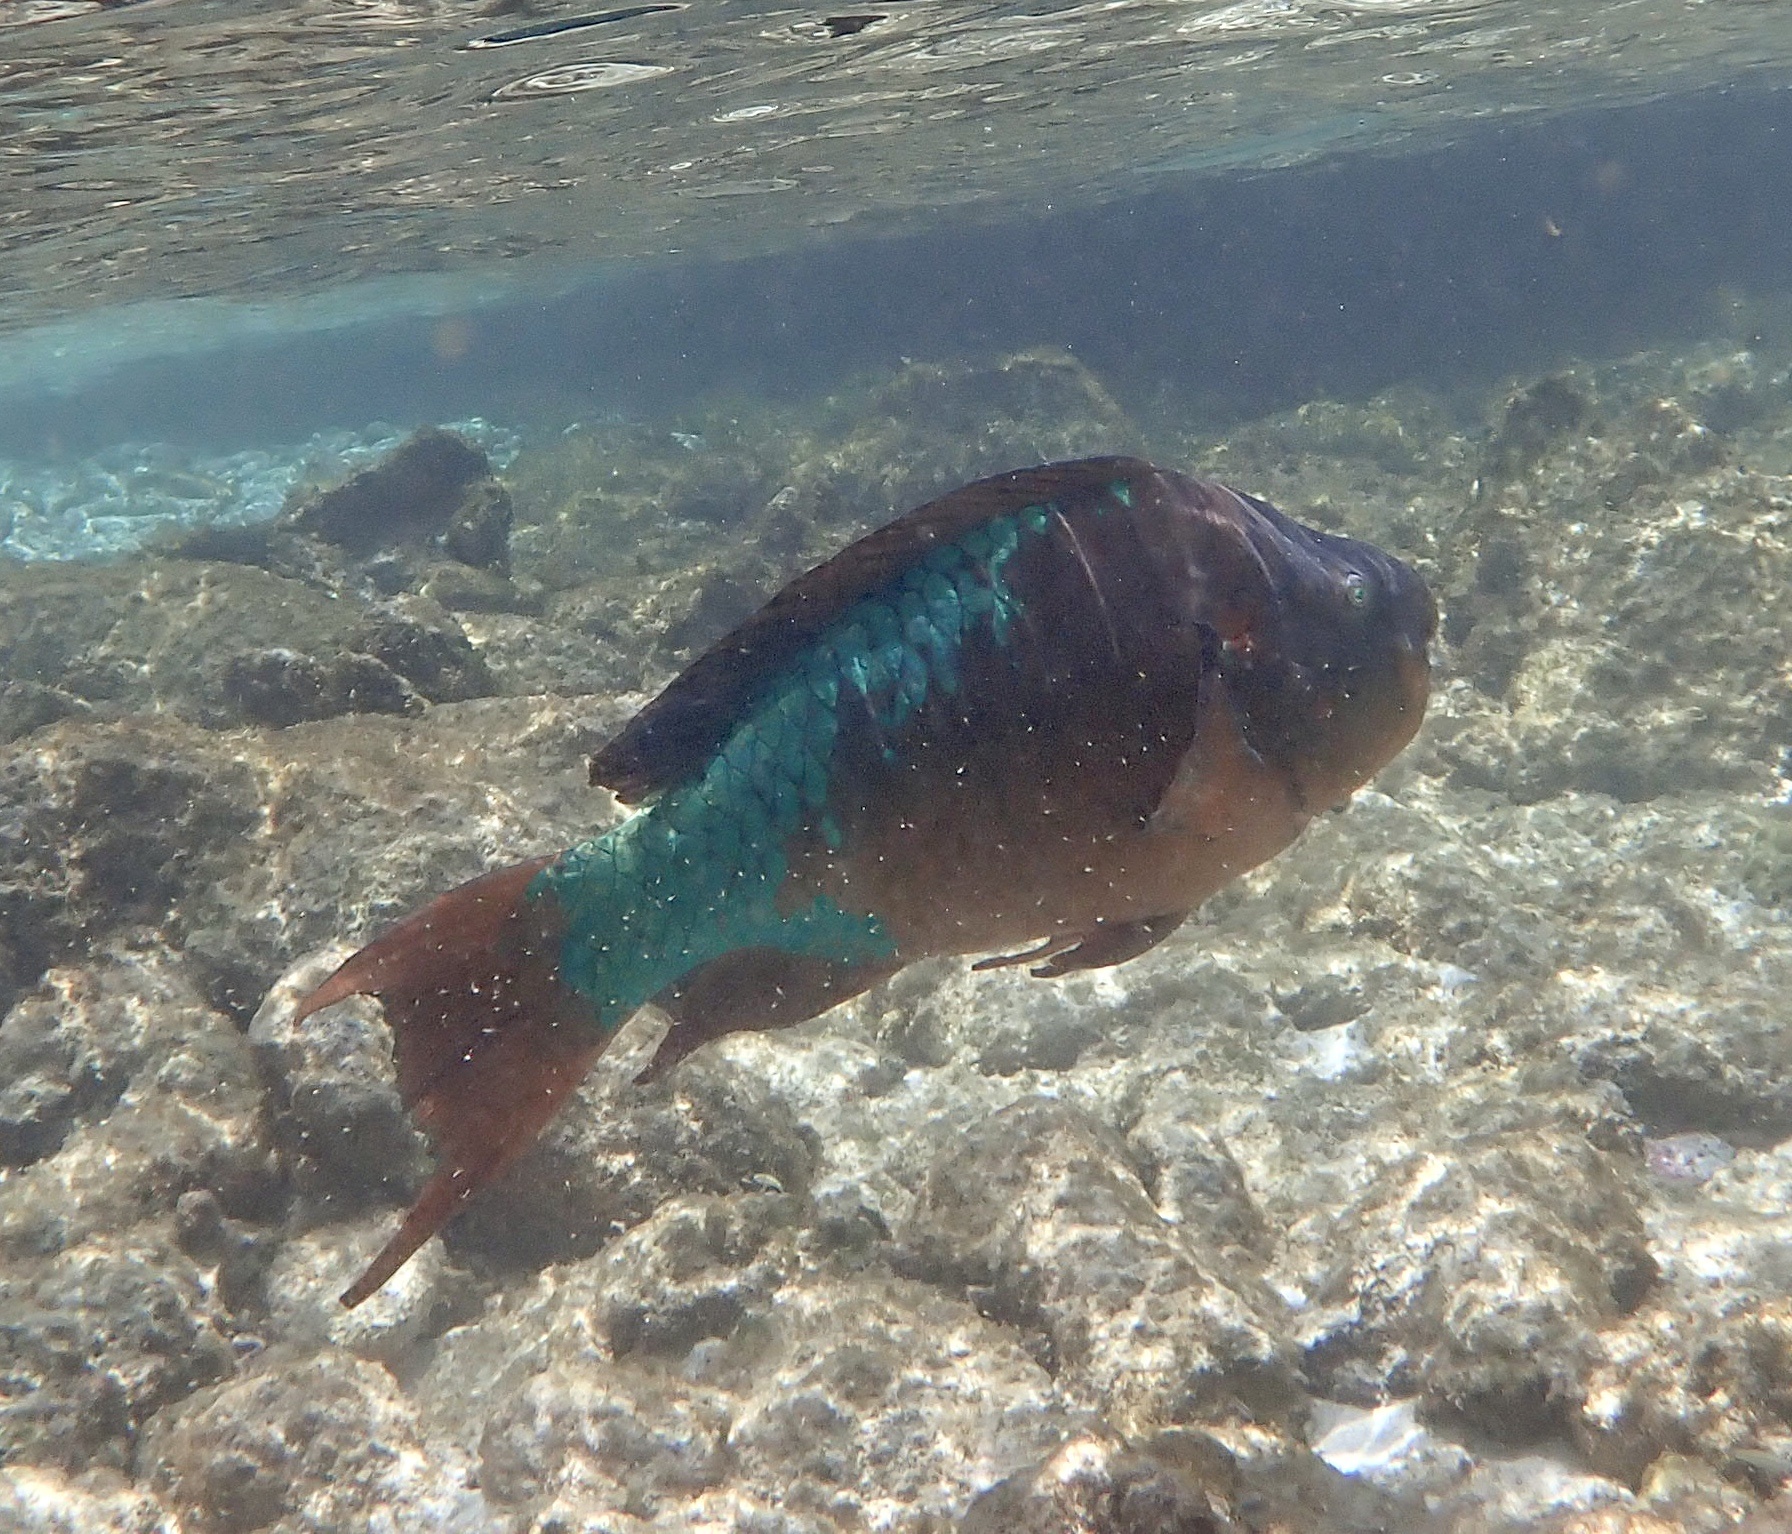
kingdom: Animalia
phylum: Chordata
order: Perciformes
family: Scaridae
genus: Scarus
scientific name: Scarus guacamaia
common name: Rainbow parrotfish
